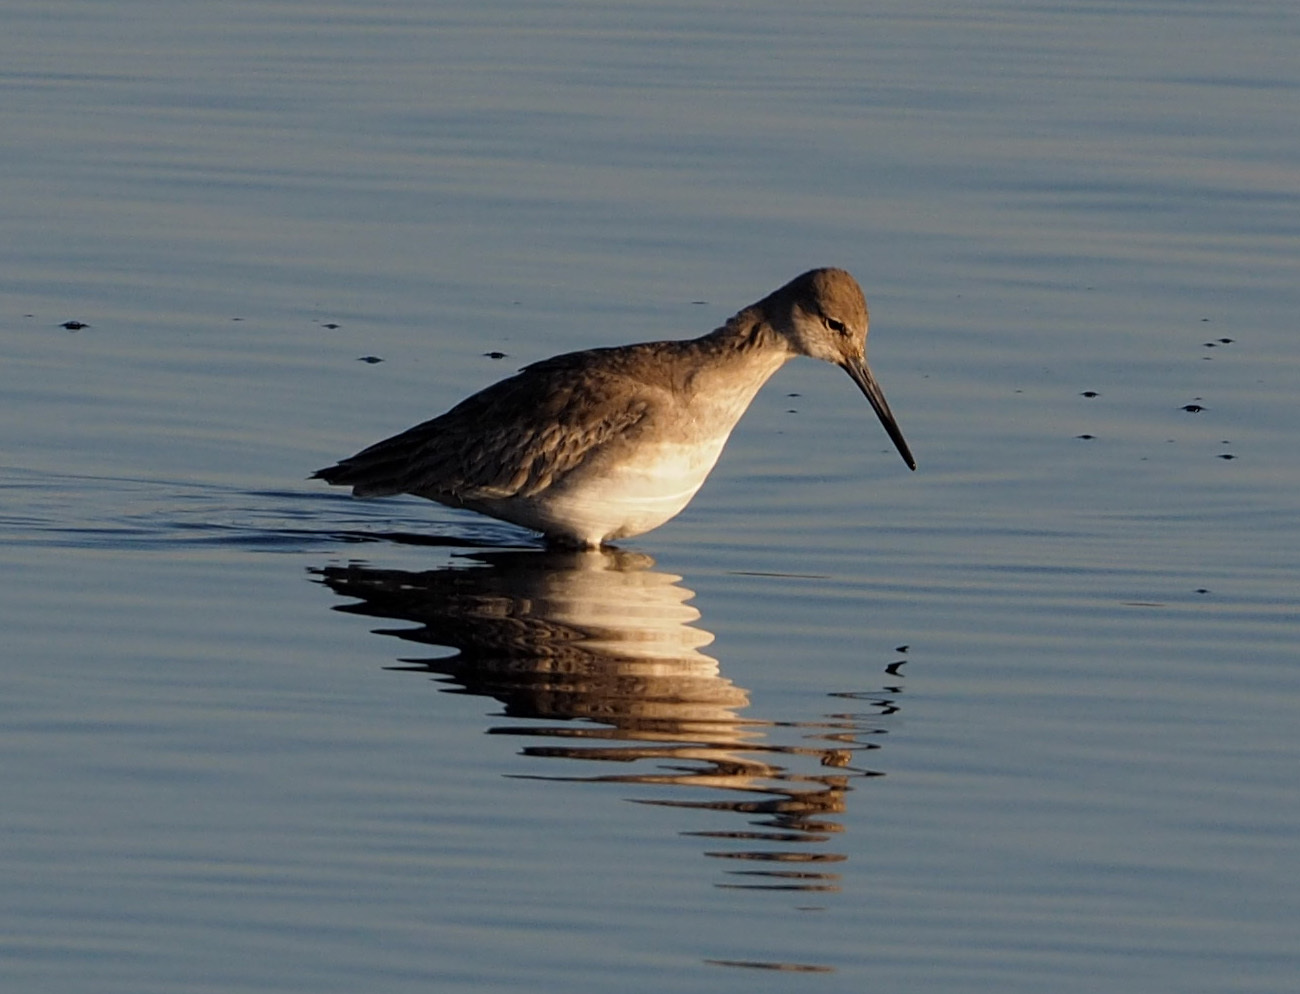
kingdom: Animalia
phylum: Chordata
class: Aves
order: Charadriiformes
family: Scolopacidae
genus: Tringa
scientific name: Tringa semipalmata
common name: Willet
